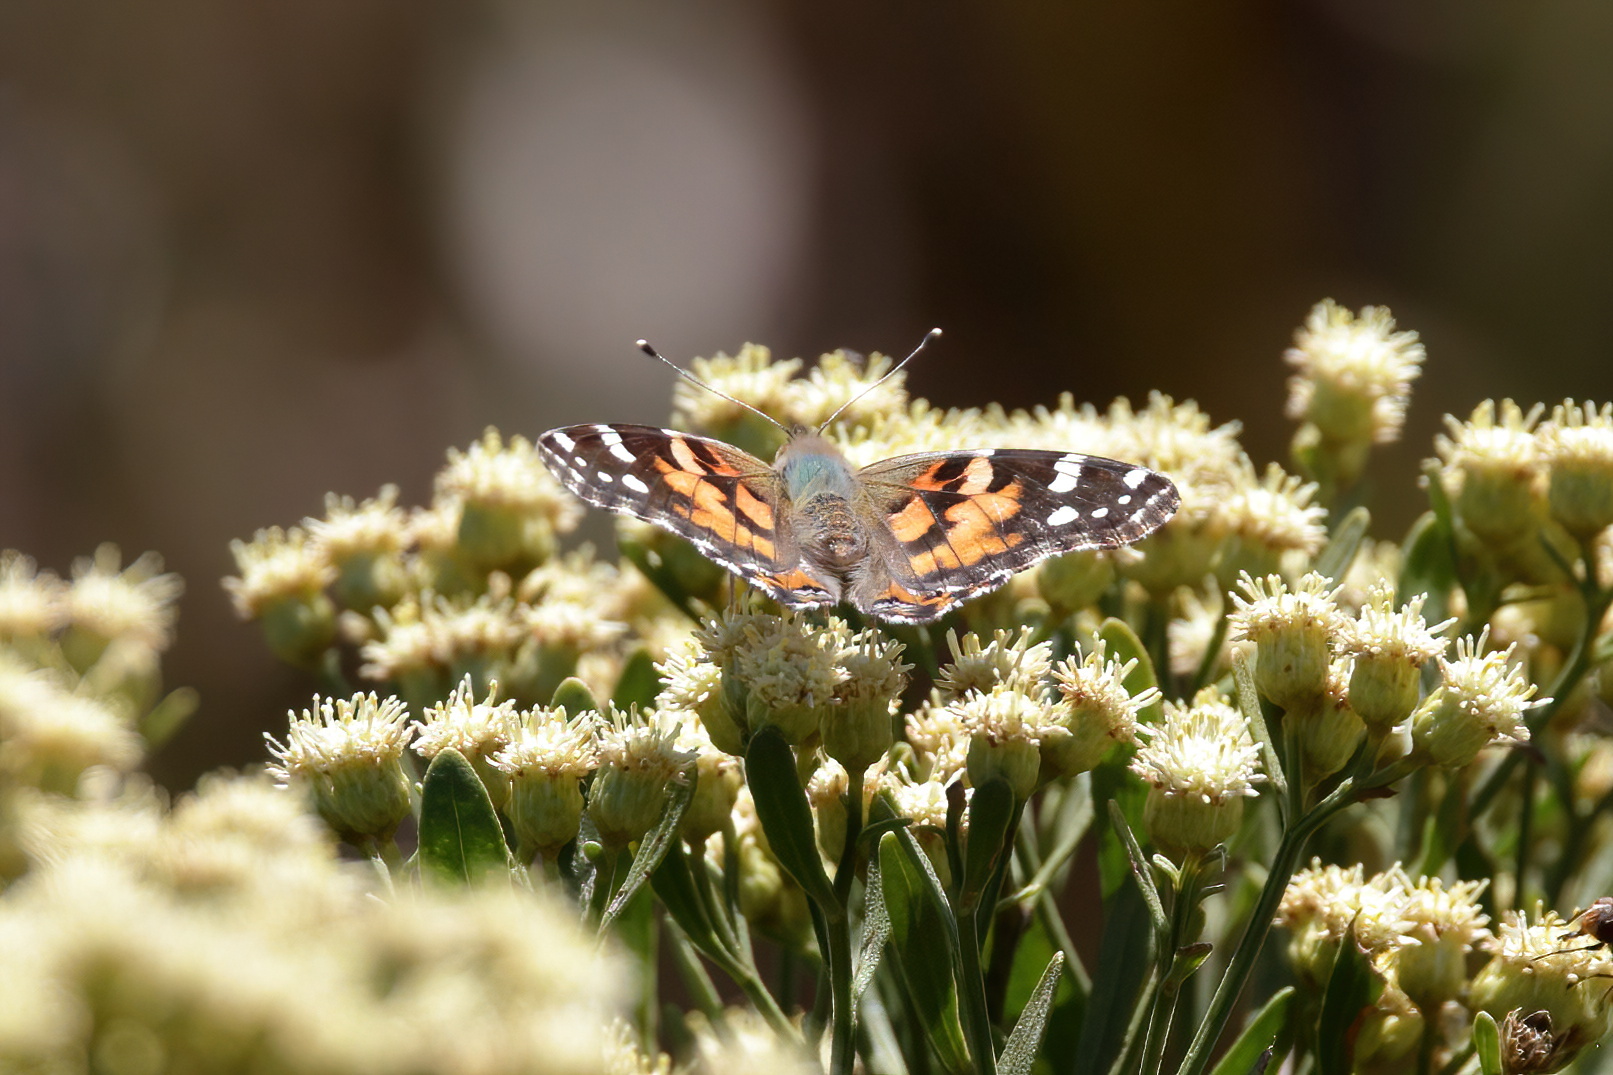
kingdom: Animalia
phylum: Arthropoda
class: Insecta
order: Lepidoptera
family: Nymphalidae
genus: Vanessa
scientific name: Vanessa cardui
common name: Painted lady
